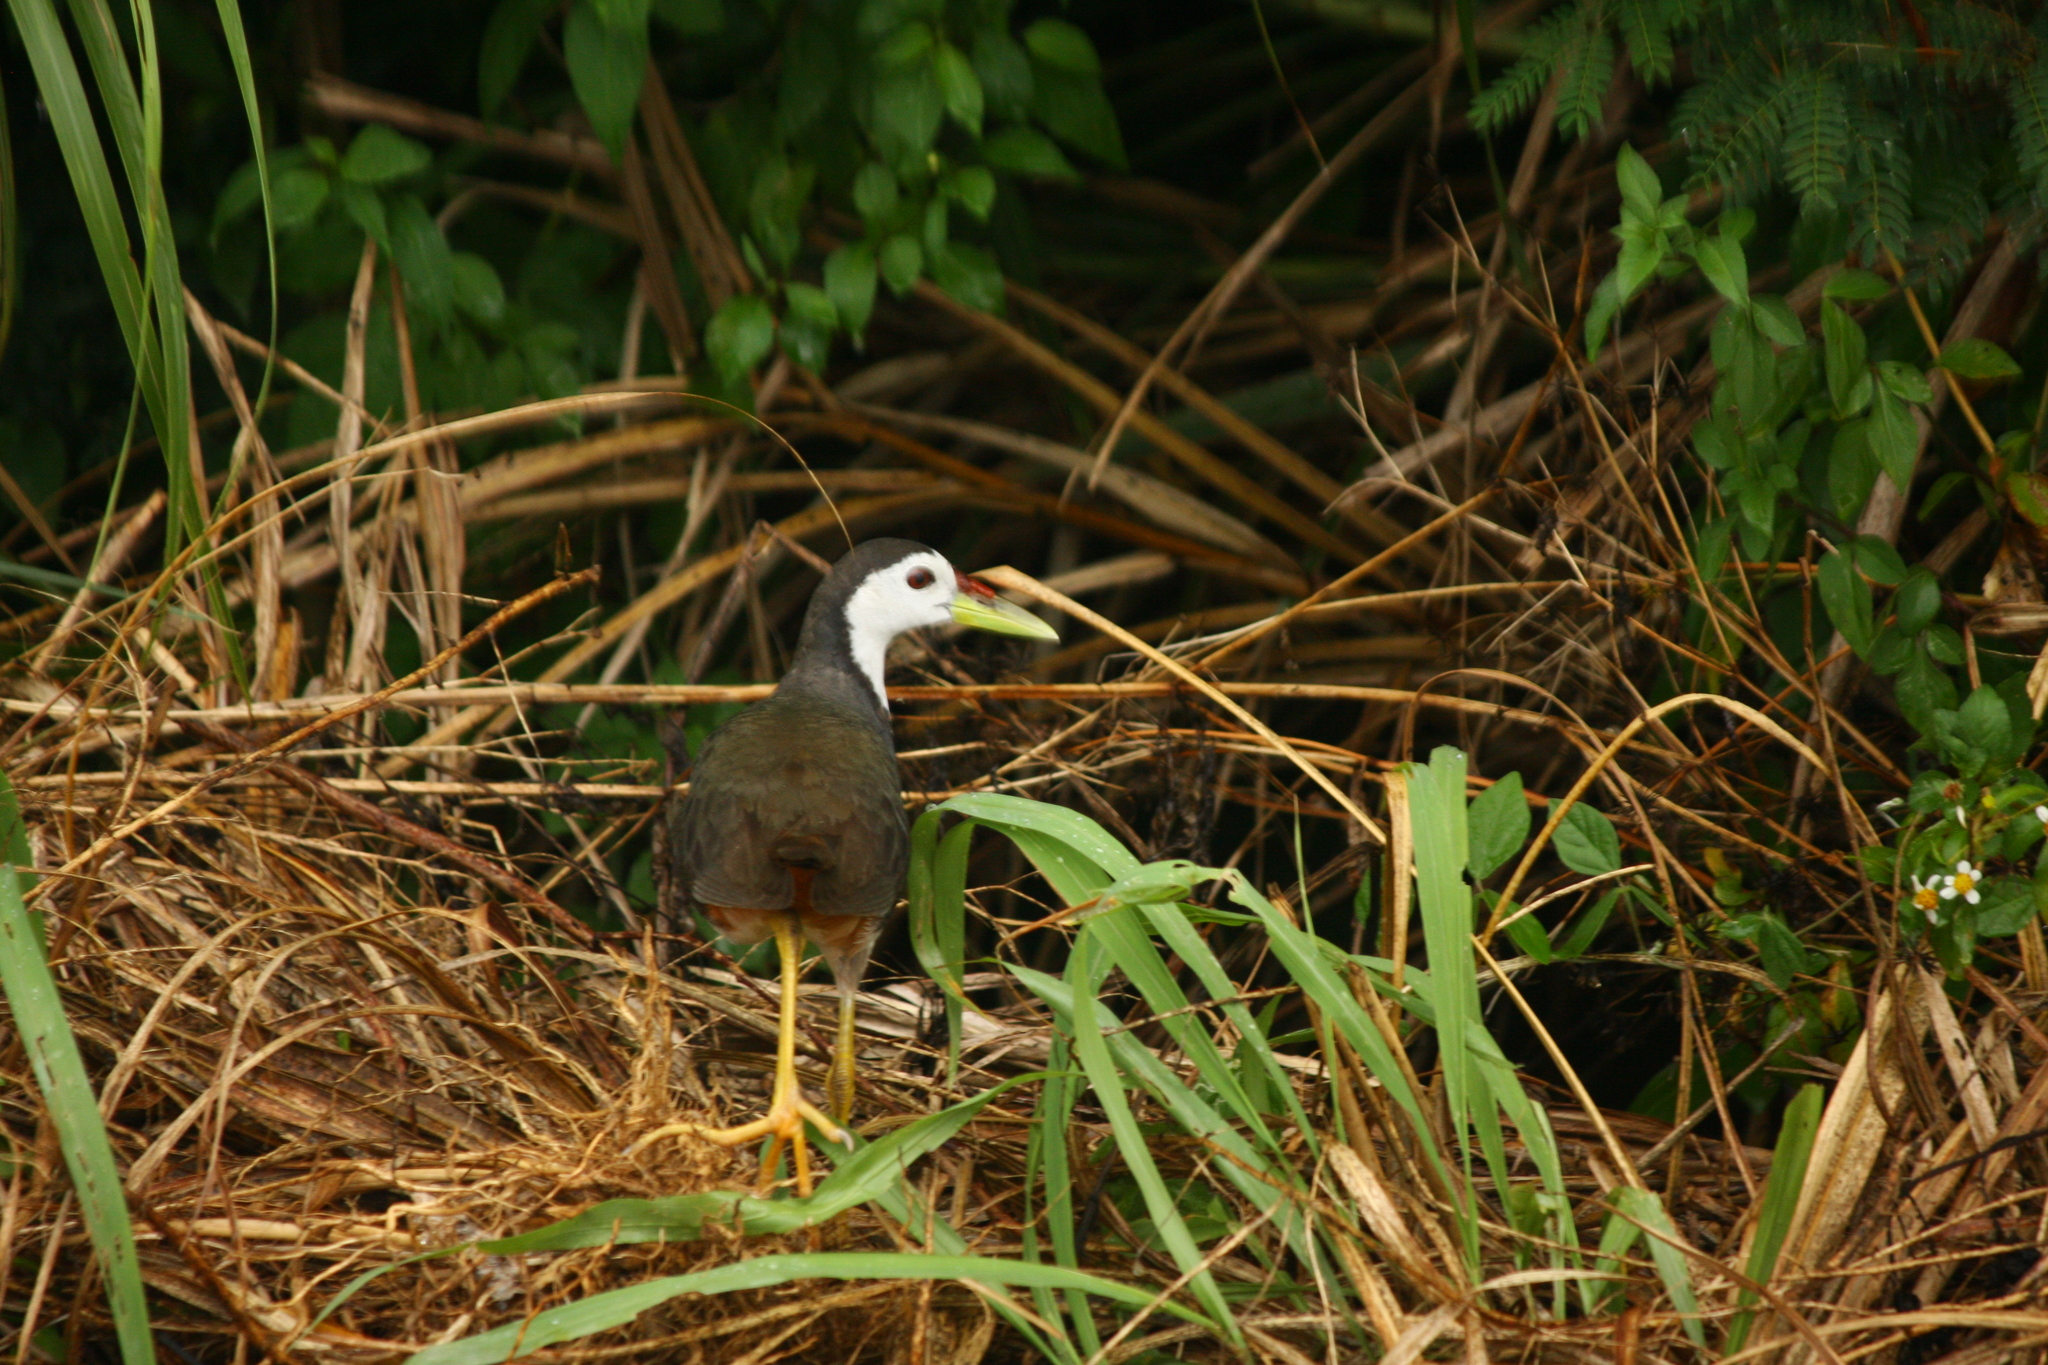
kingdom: Animalia
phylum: Chordata
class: Aves
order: Gruiformes
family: Rallidae
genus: Amaurornis
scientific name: Amaurornis phoenicurus
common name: White-breasted waterhen
